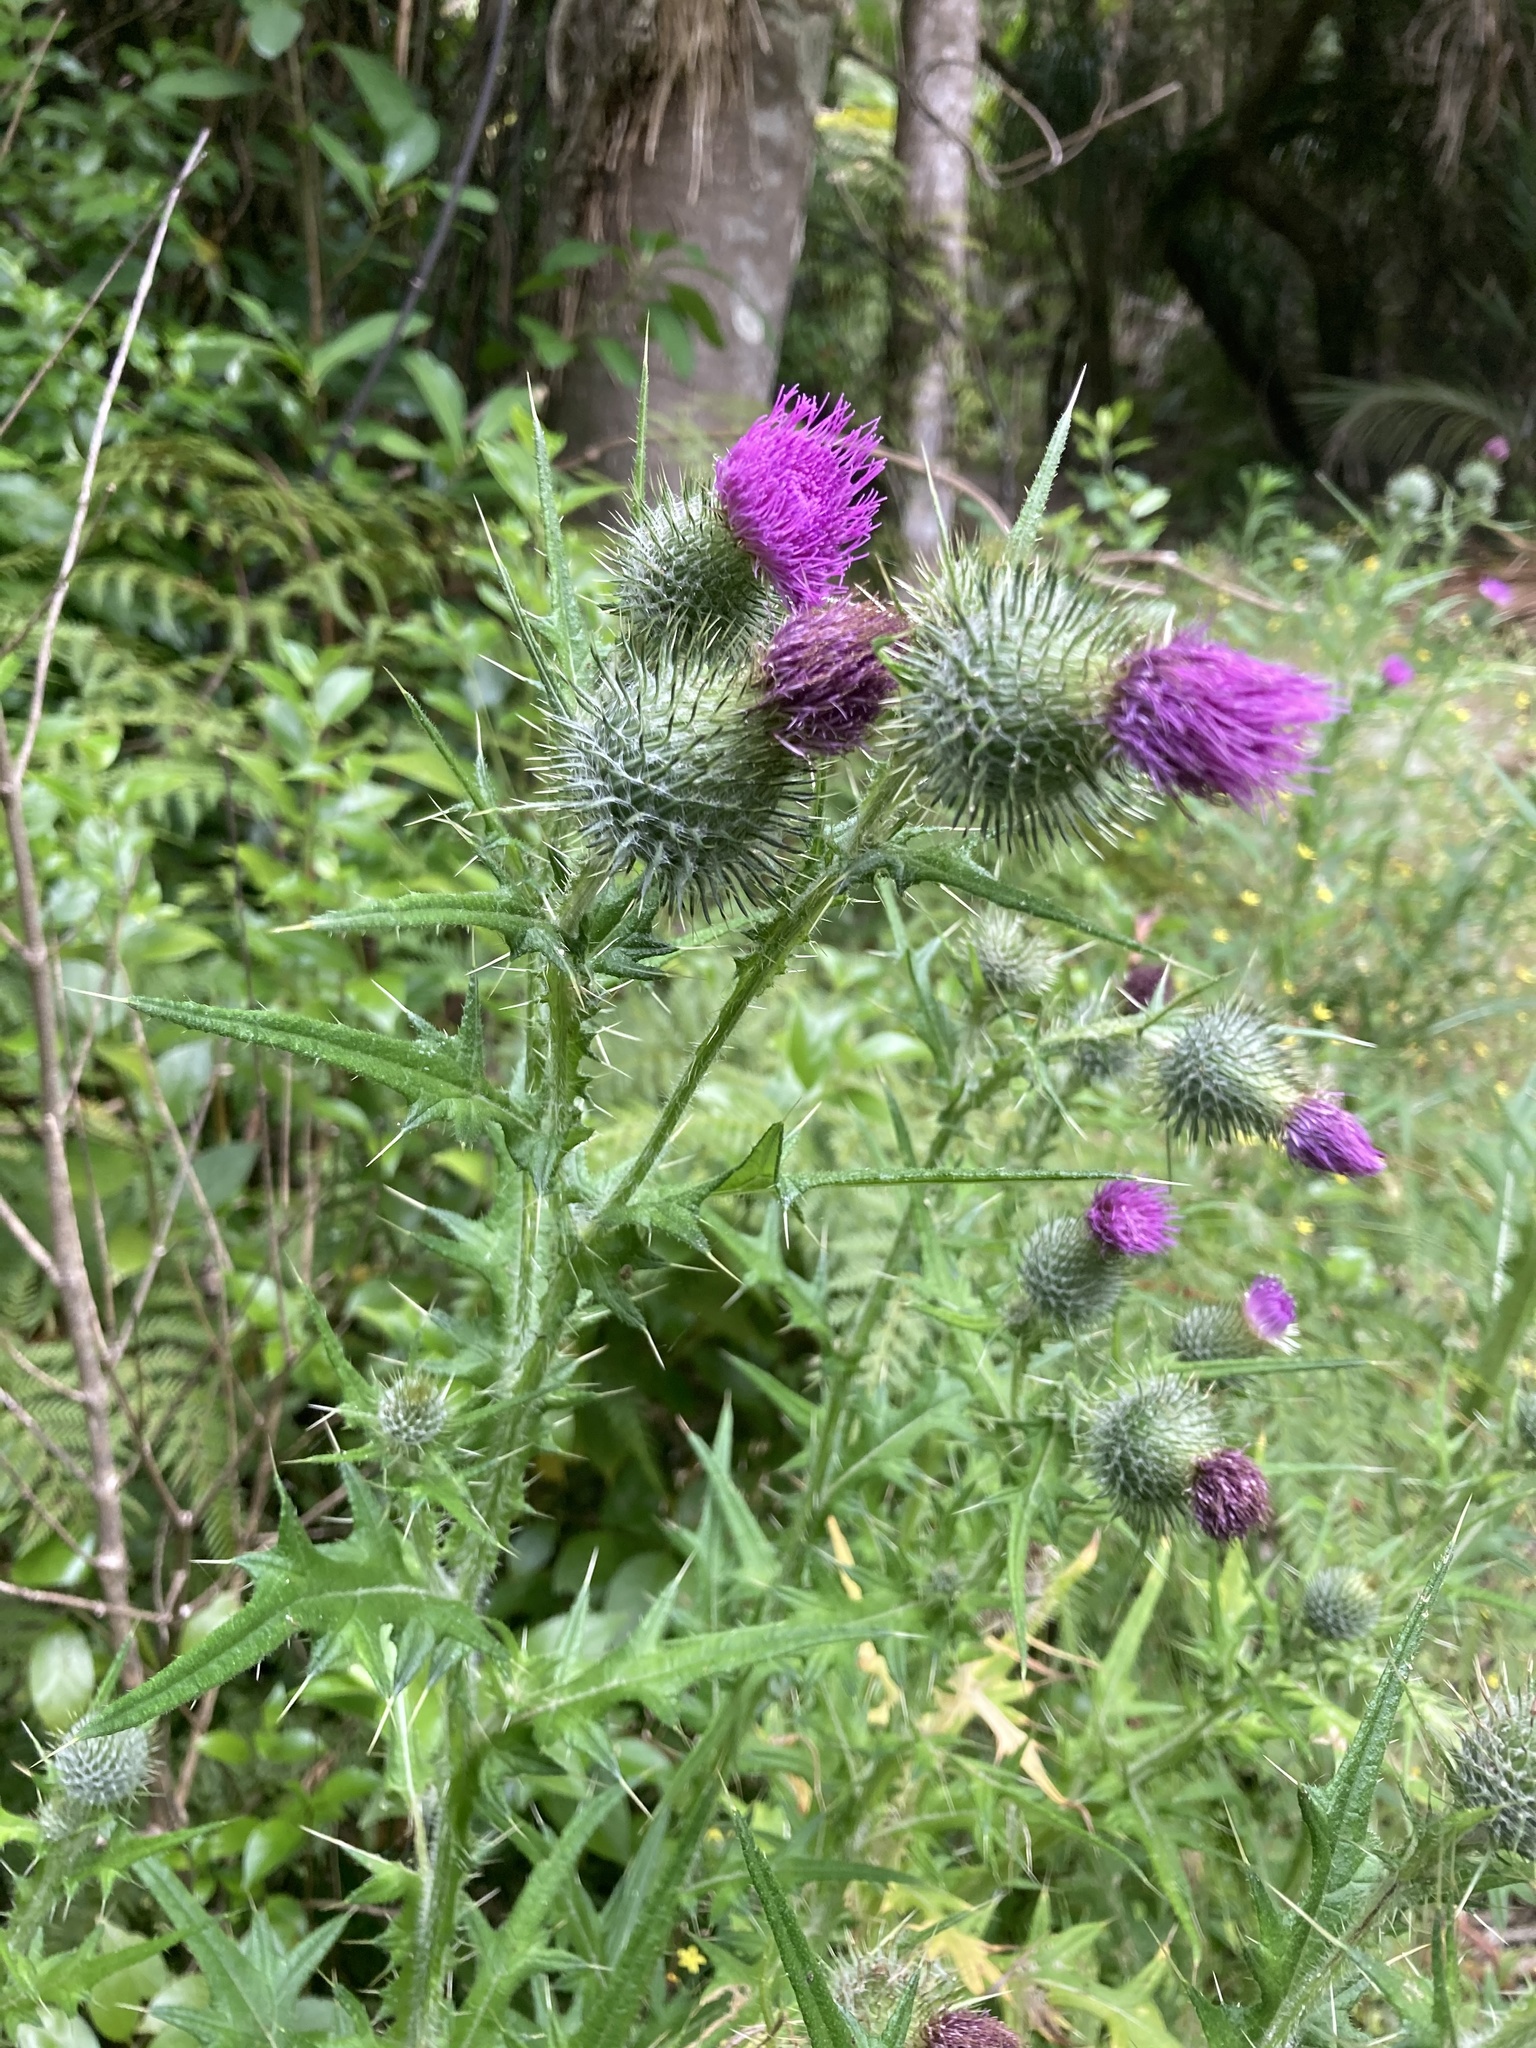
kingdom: Plantae
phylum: Tracheophyta
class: Magnoliopsida
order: Asterales
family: Asteraceae
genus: Cirsium
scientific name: Cirsium vulgare
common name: Bull thistle
